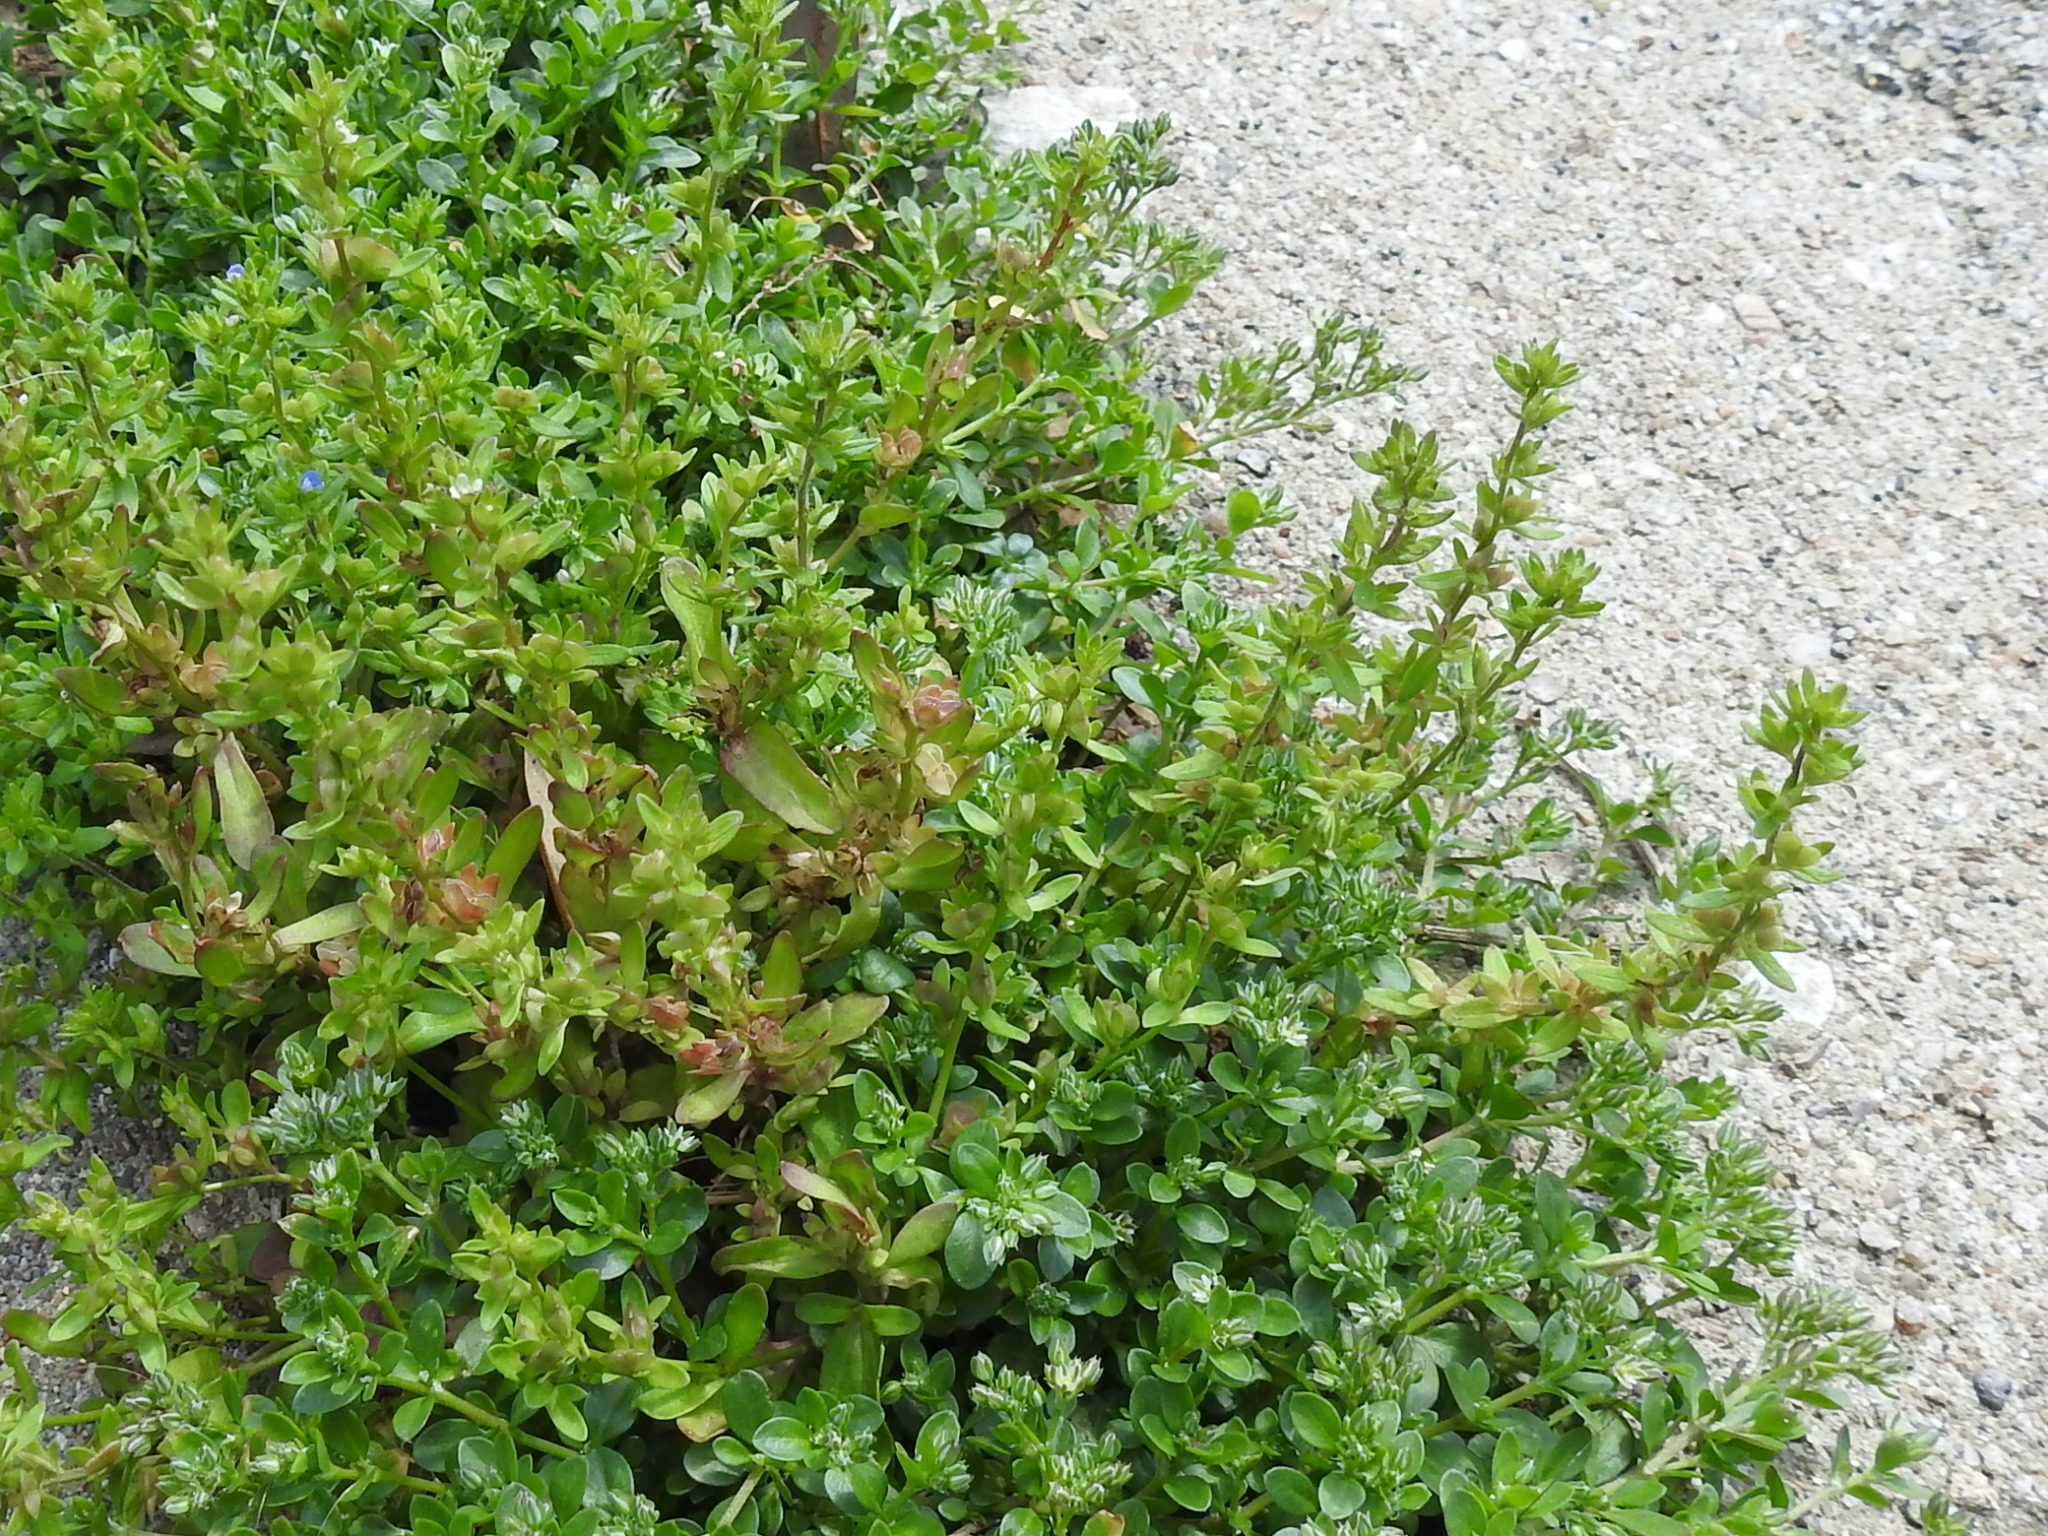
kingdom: Plantae
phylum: Tracheophyta
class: Magnoliopsida
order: Lamiales
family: Plantaginaceae
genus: Veronica
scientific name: Veronica peregrina
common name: Neckweed
